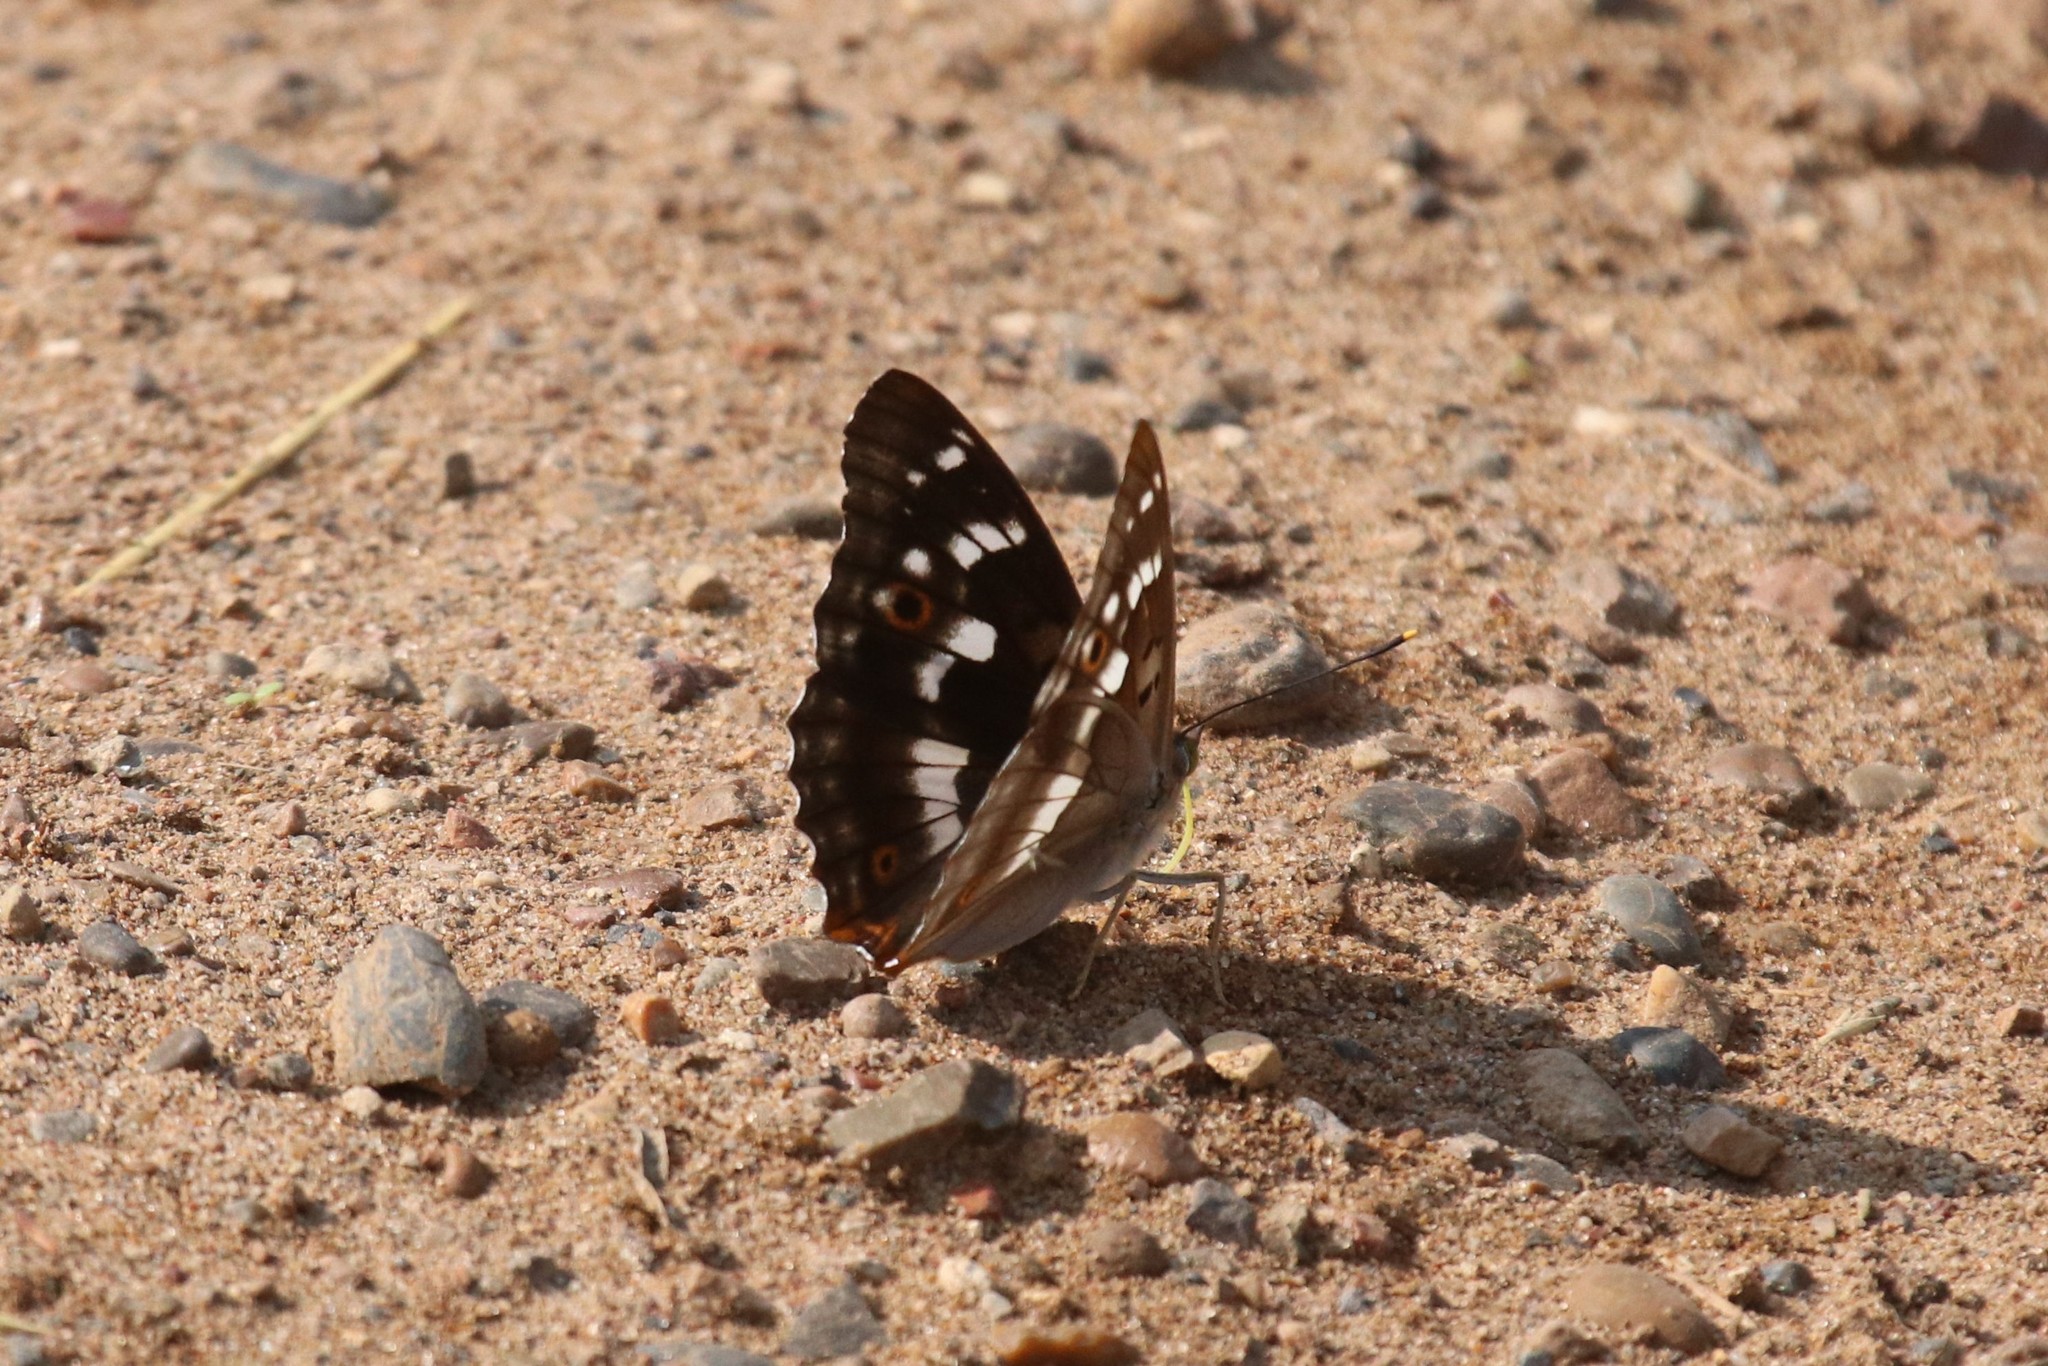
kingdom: Animalia
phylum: Arthropoda
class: Insecta
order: Lepidoptera
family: Nymphalidae
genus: Apatura
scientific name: Apatura ilia
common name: Lesser purple emperor
